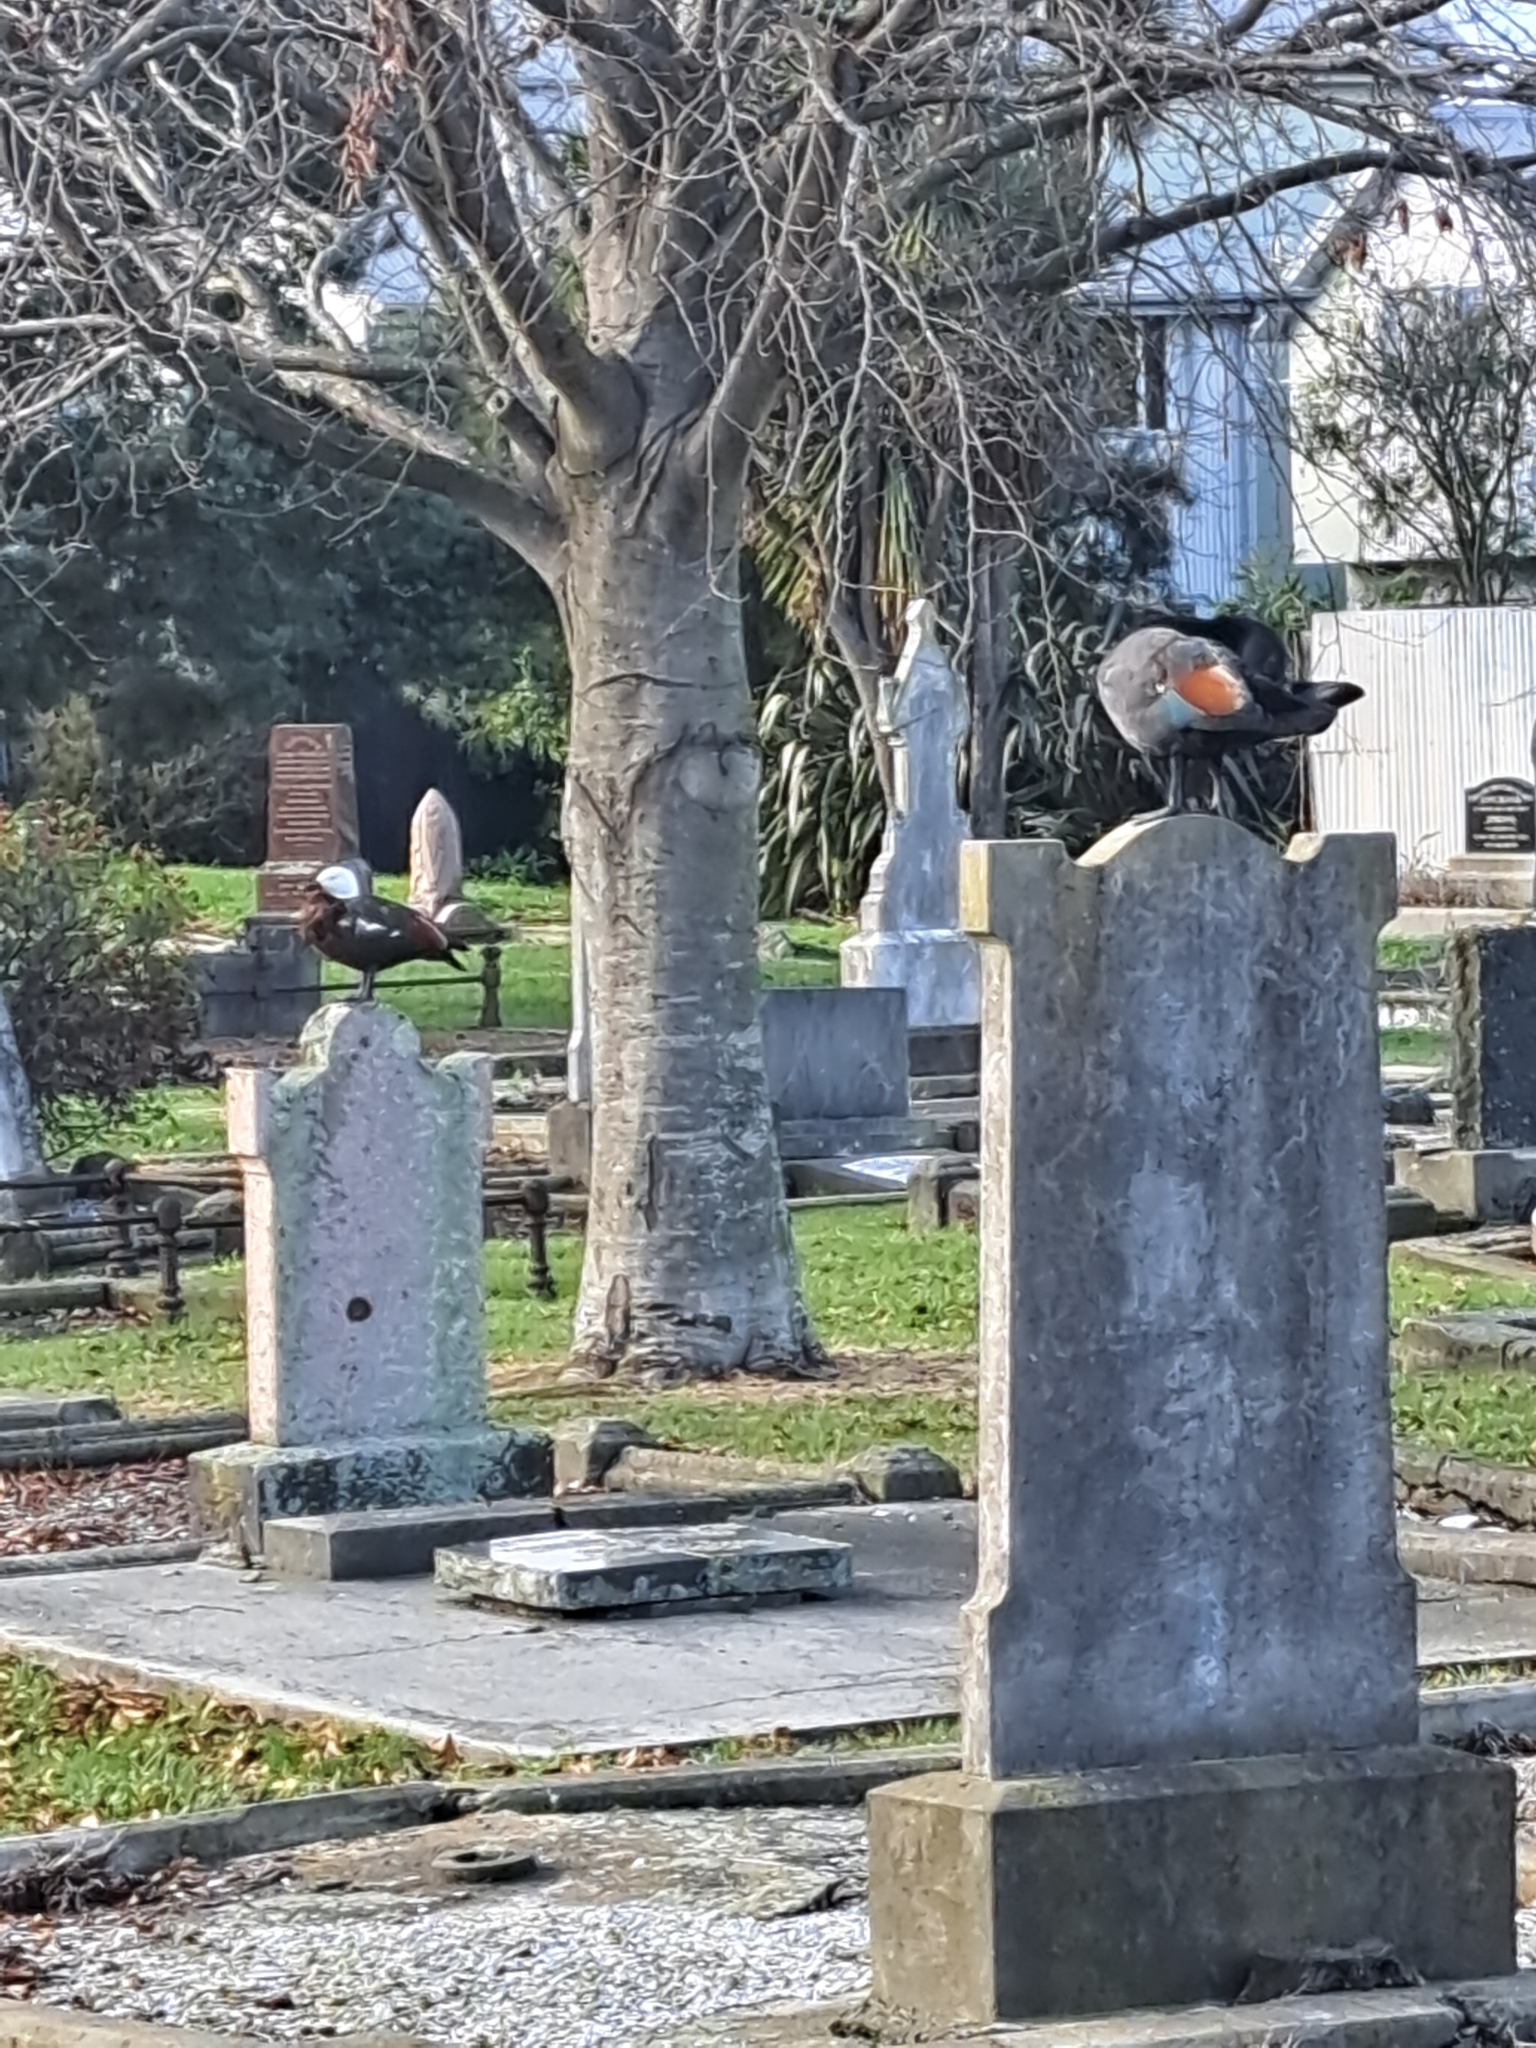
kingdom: Animalia
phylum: Chordata
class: Aves
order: Anseriformes
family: Anatidae
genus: Tadorna
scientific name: Tadorna variegata
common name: Paradise shelduck
